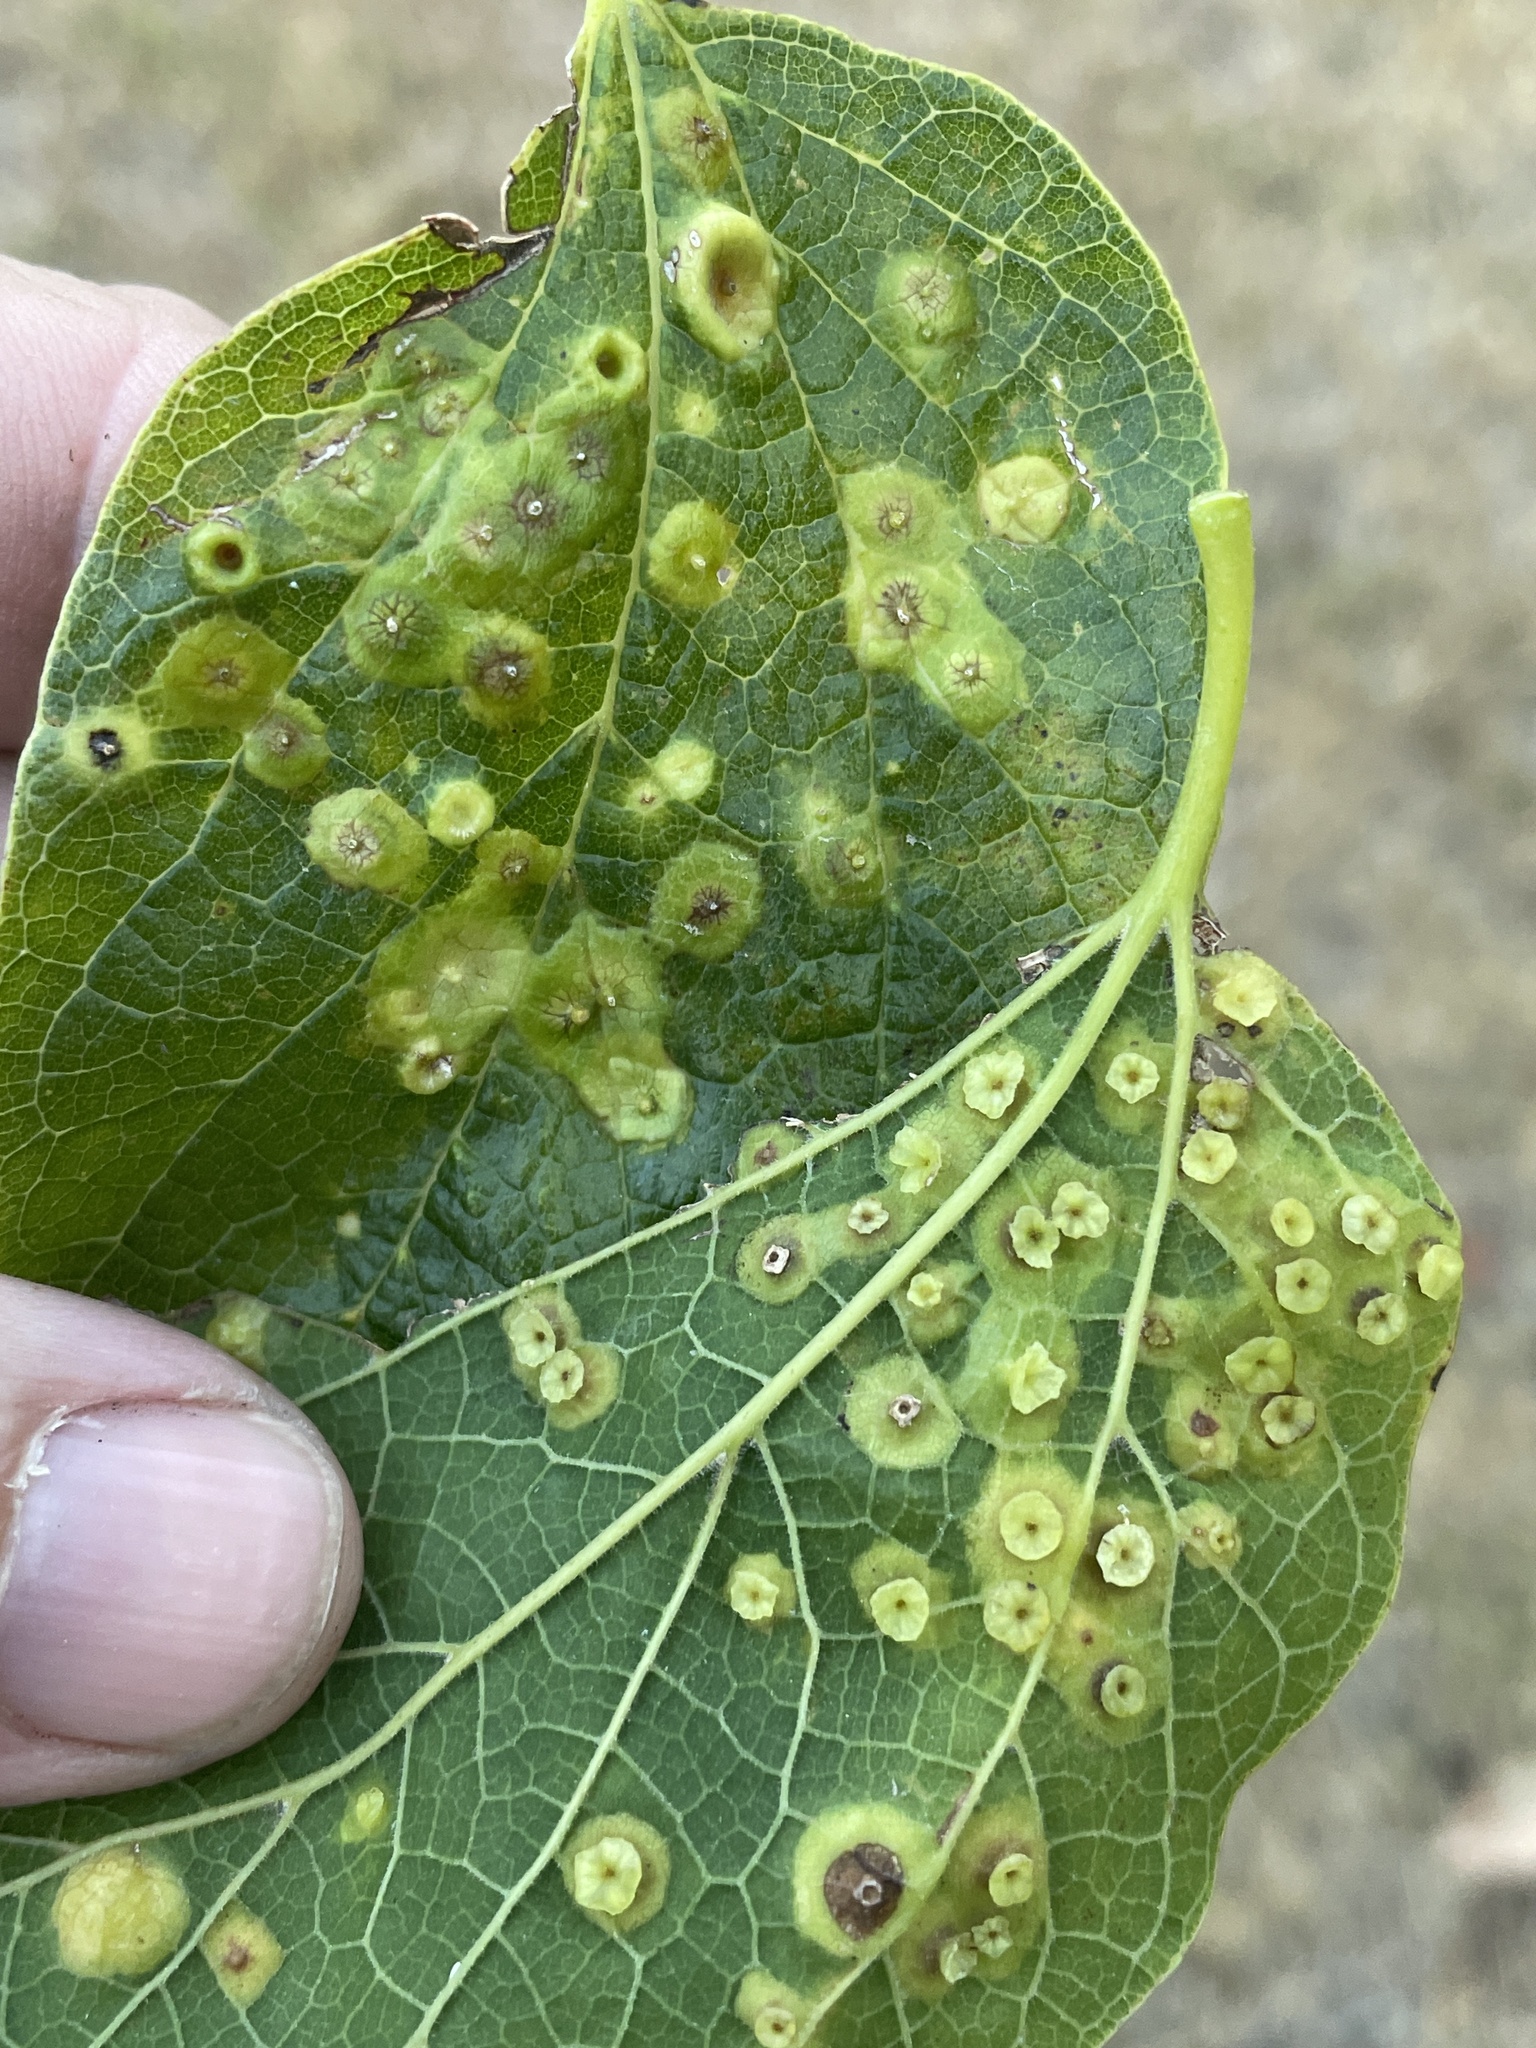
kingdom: Animalia
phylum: Arthropoda
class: Insecta
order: Hemiptera
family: Aphalaridae
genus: Pachypsylla
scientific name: Pachypsylla celtidisasterisca
